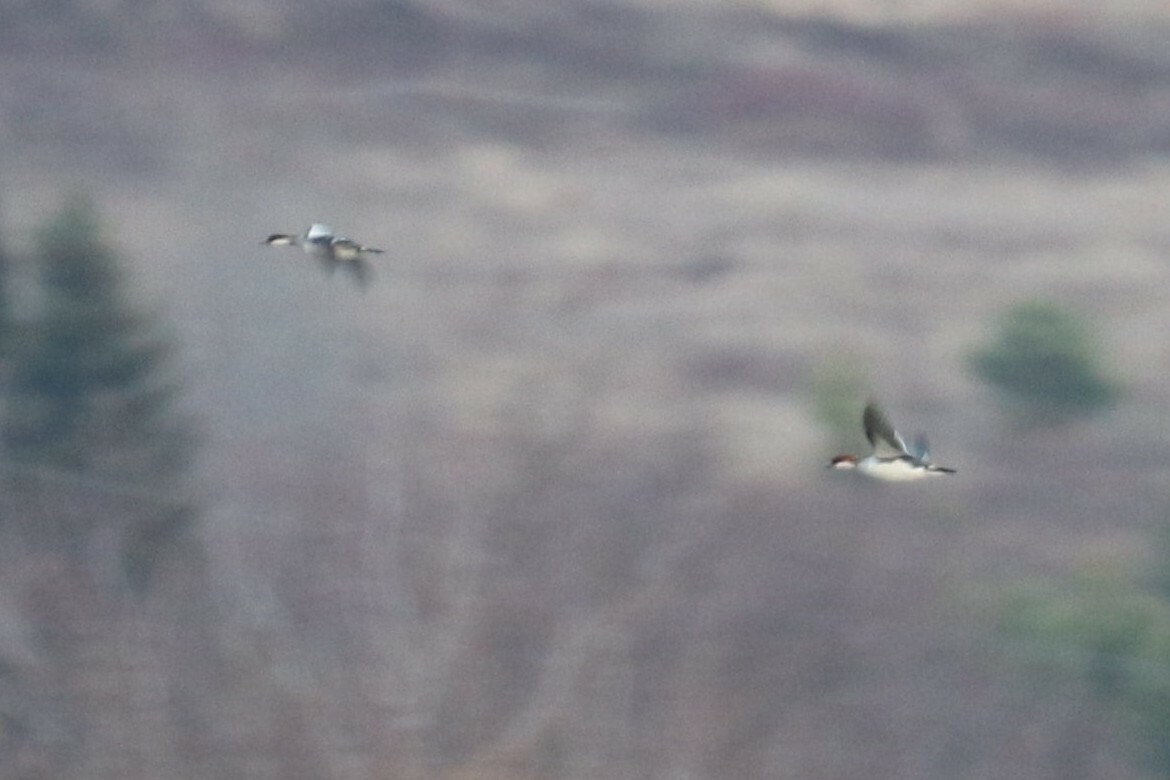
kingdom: Animalia
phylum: Chordata
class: Aves
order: Anseriformes
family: Anatidae
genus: Mergellus
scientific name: Mergellus albellus
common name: Smew
